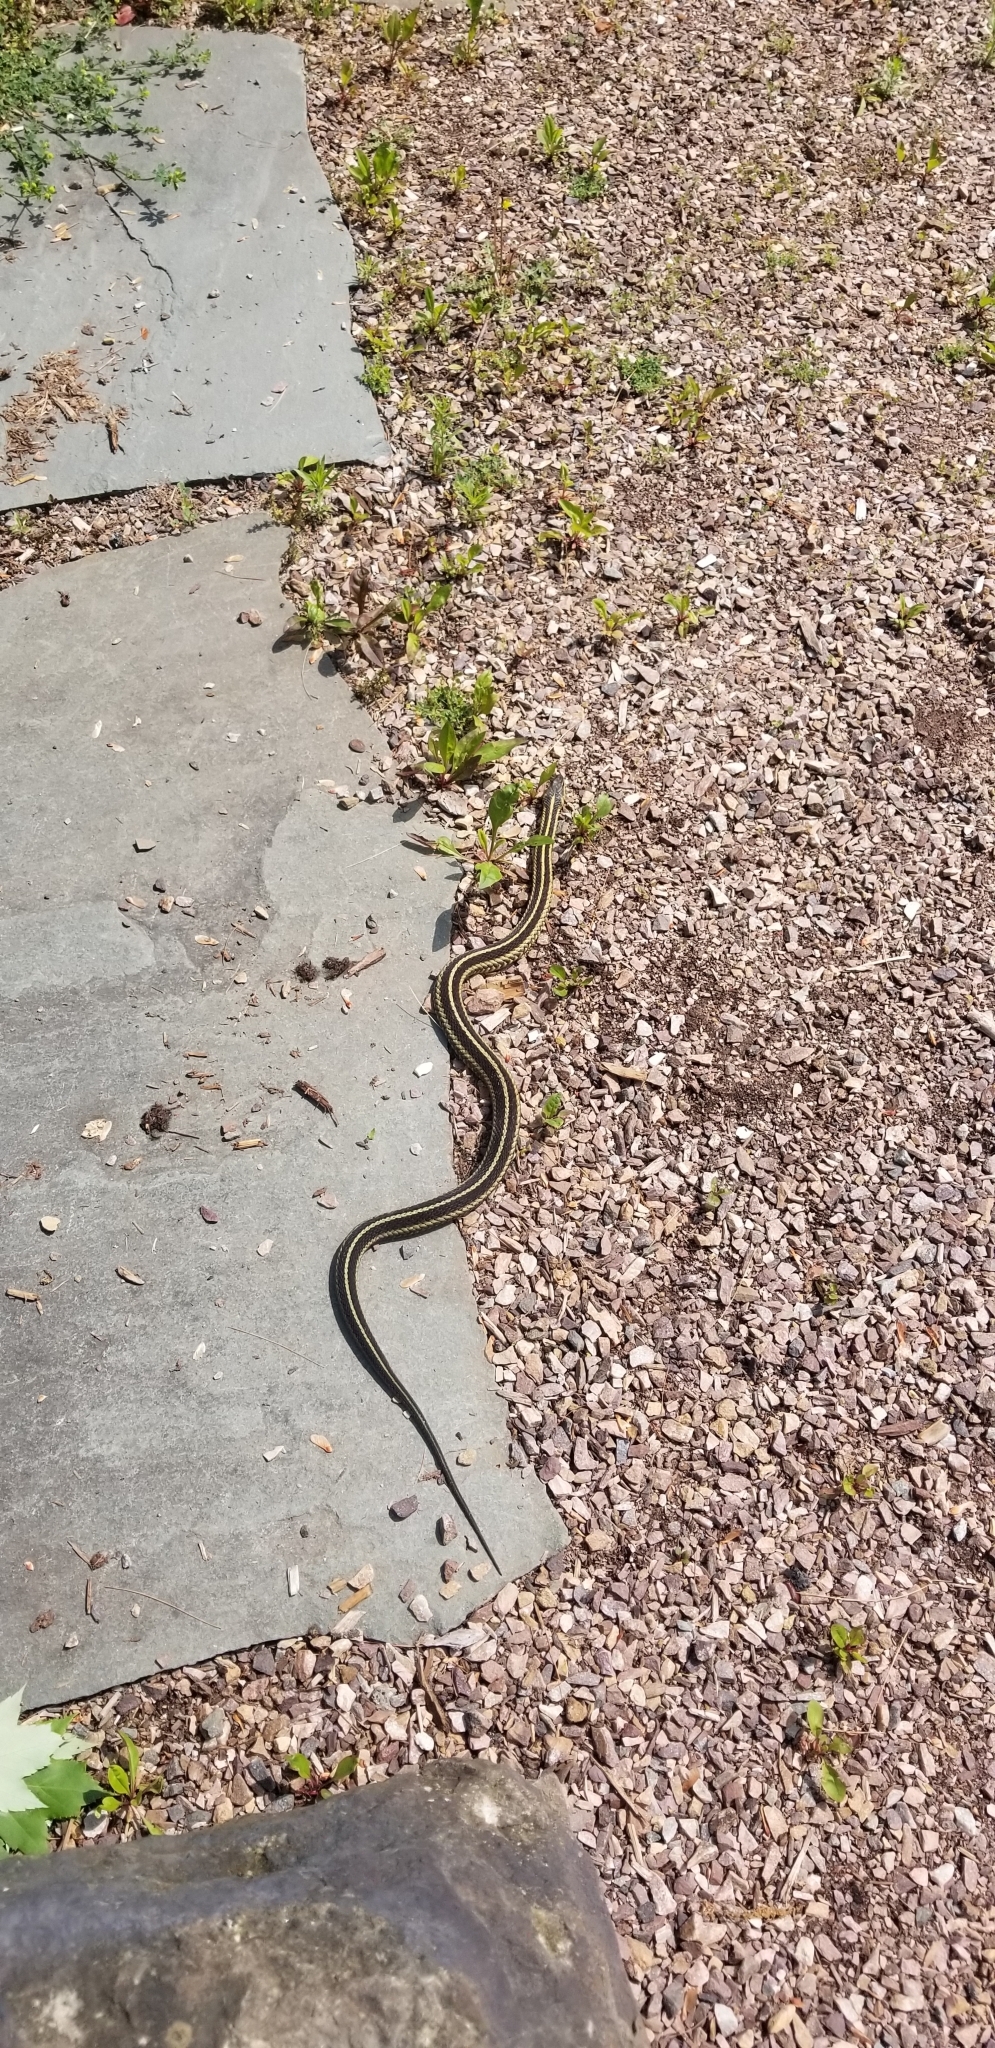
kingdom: Animalia
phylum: Chordata
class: Squamata
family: Colubridae
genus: Thamnophis
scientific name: Thamnophis sirtalis
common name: Common garter snake
